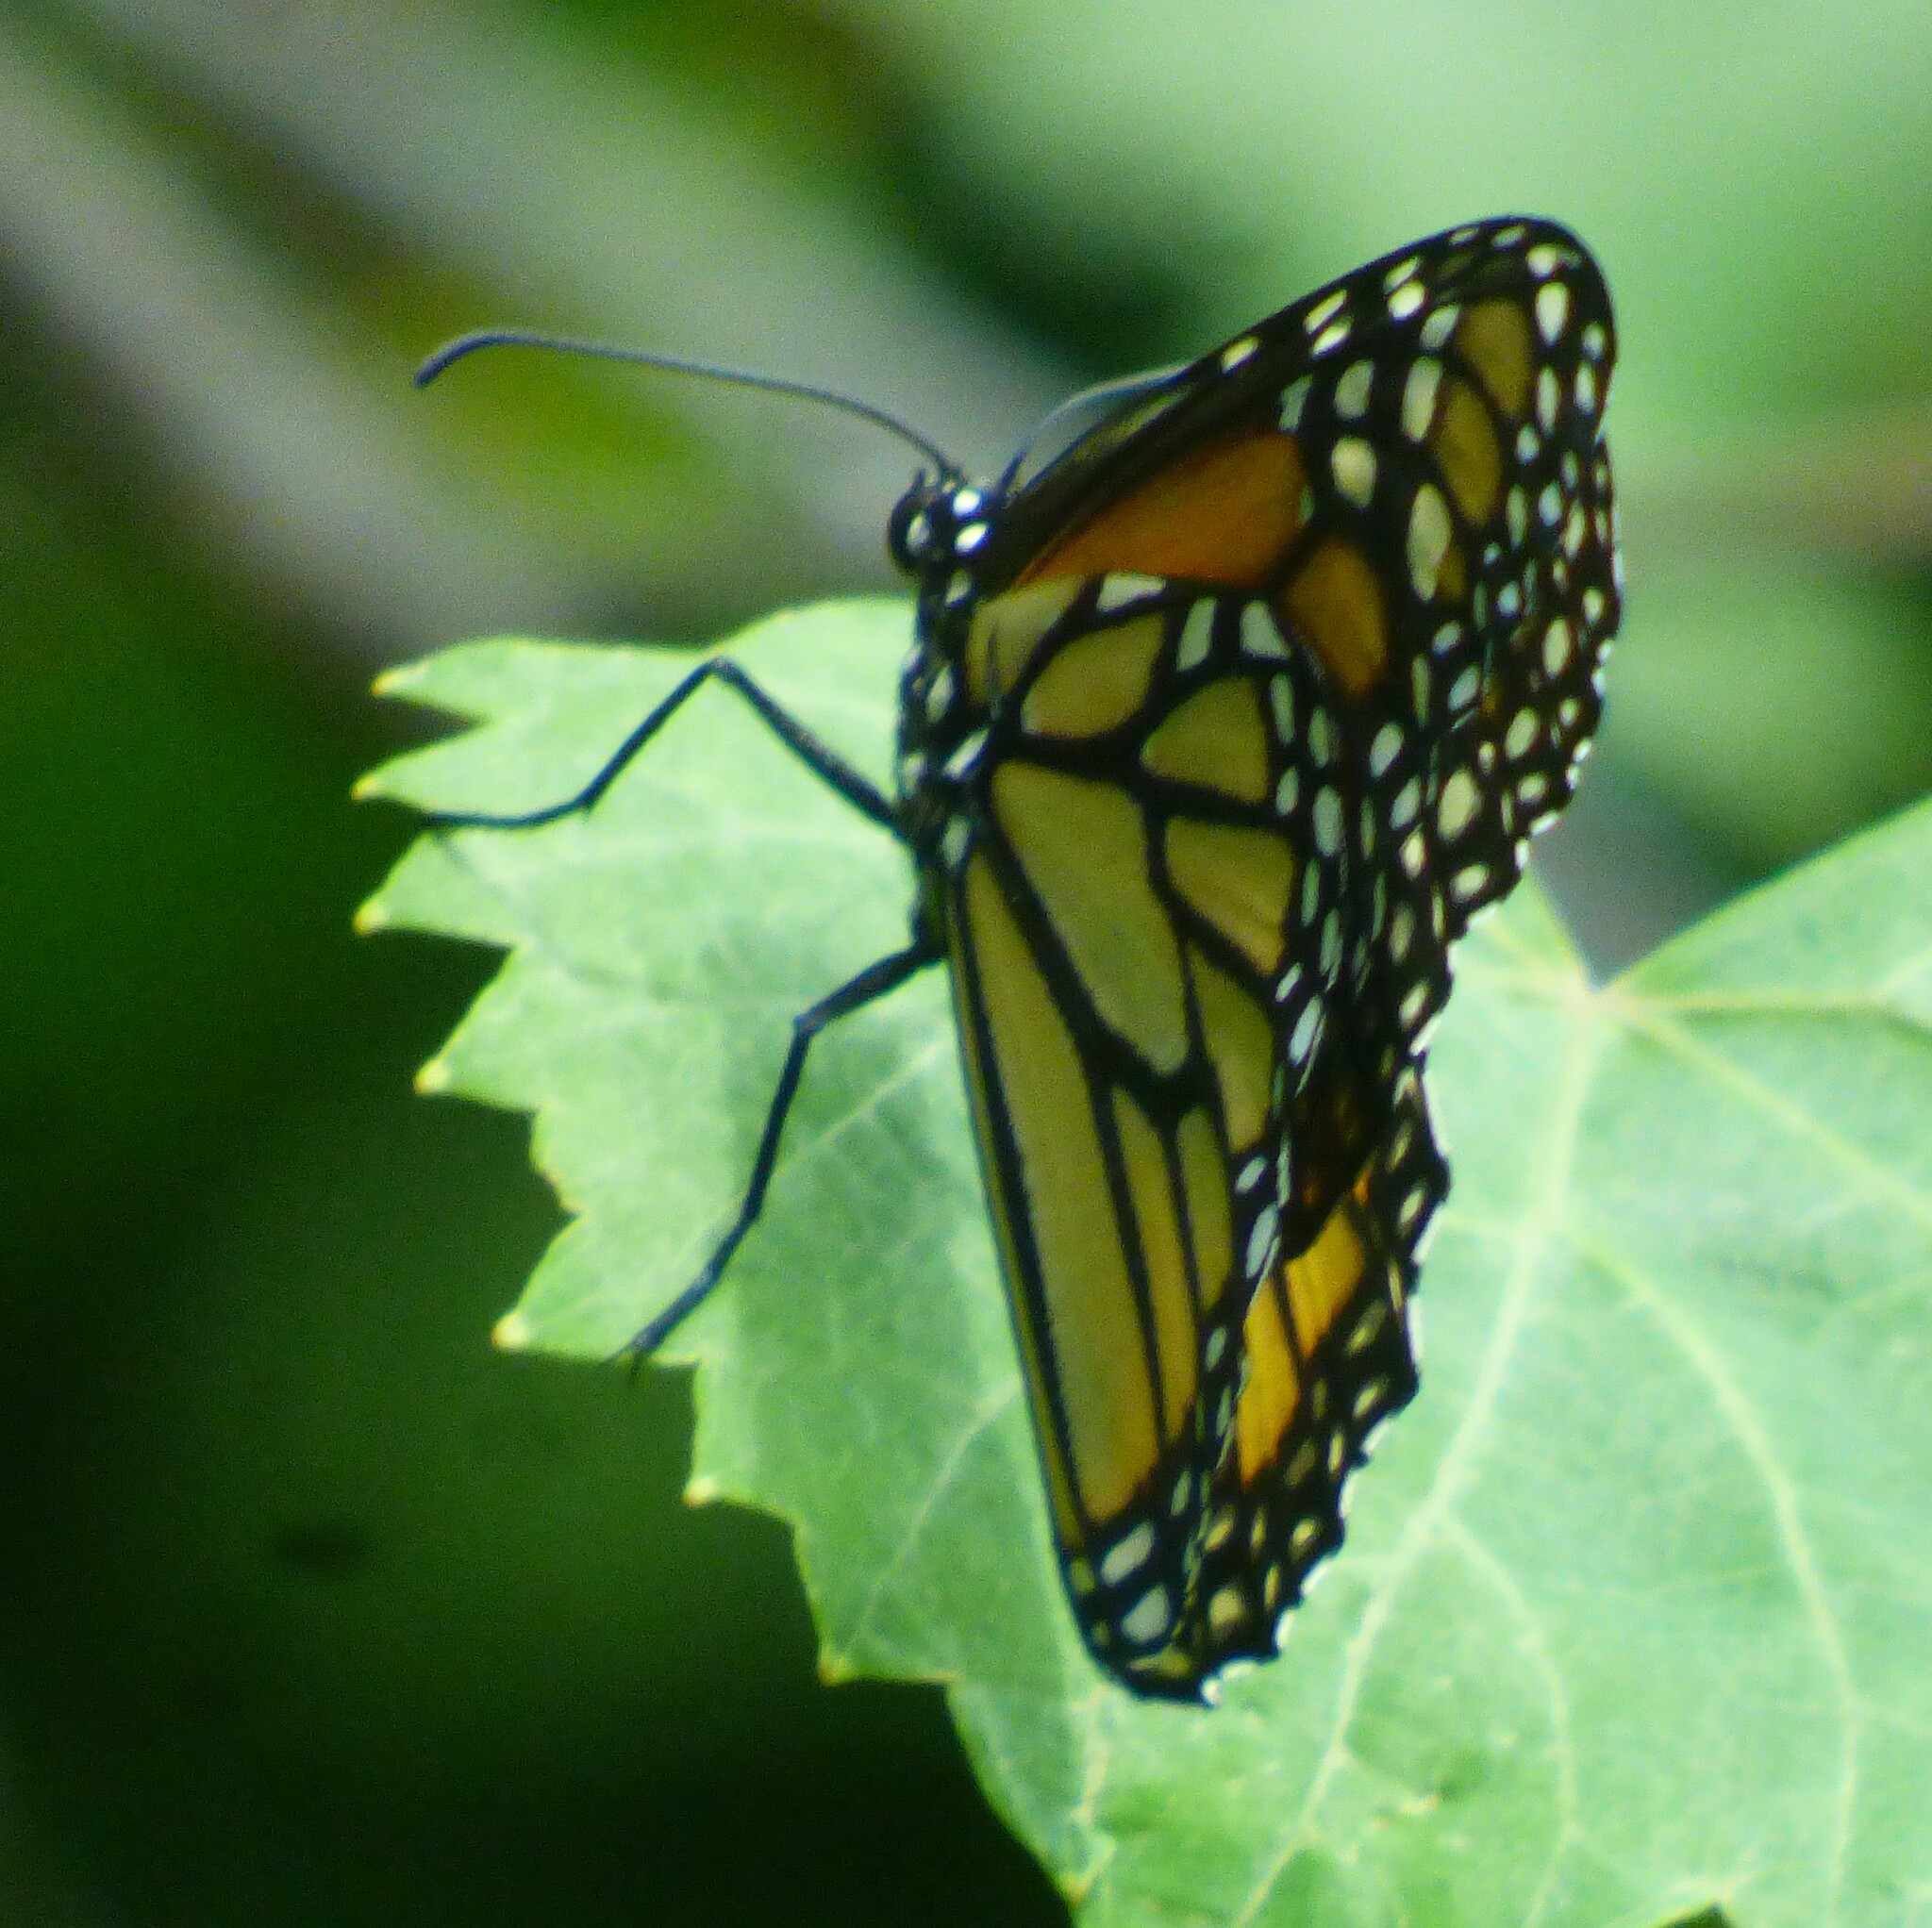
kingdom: Animalia
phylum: Arthropoda
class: Insecta
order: Lepidoptera
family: Nymphalidae
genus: Danaus
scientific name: Danaus plexippus
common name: Monarch
